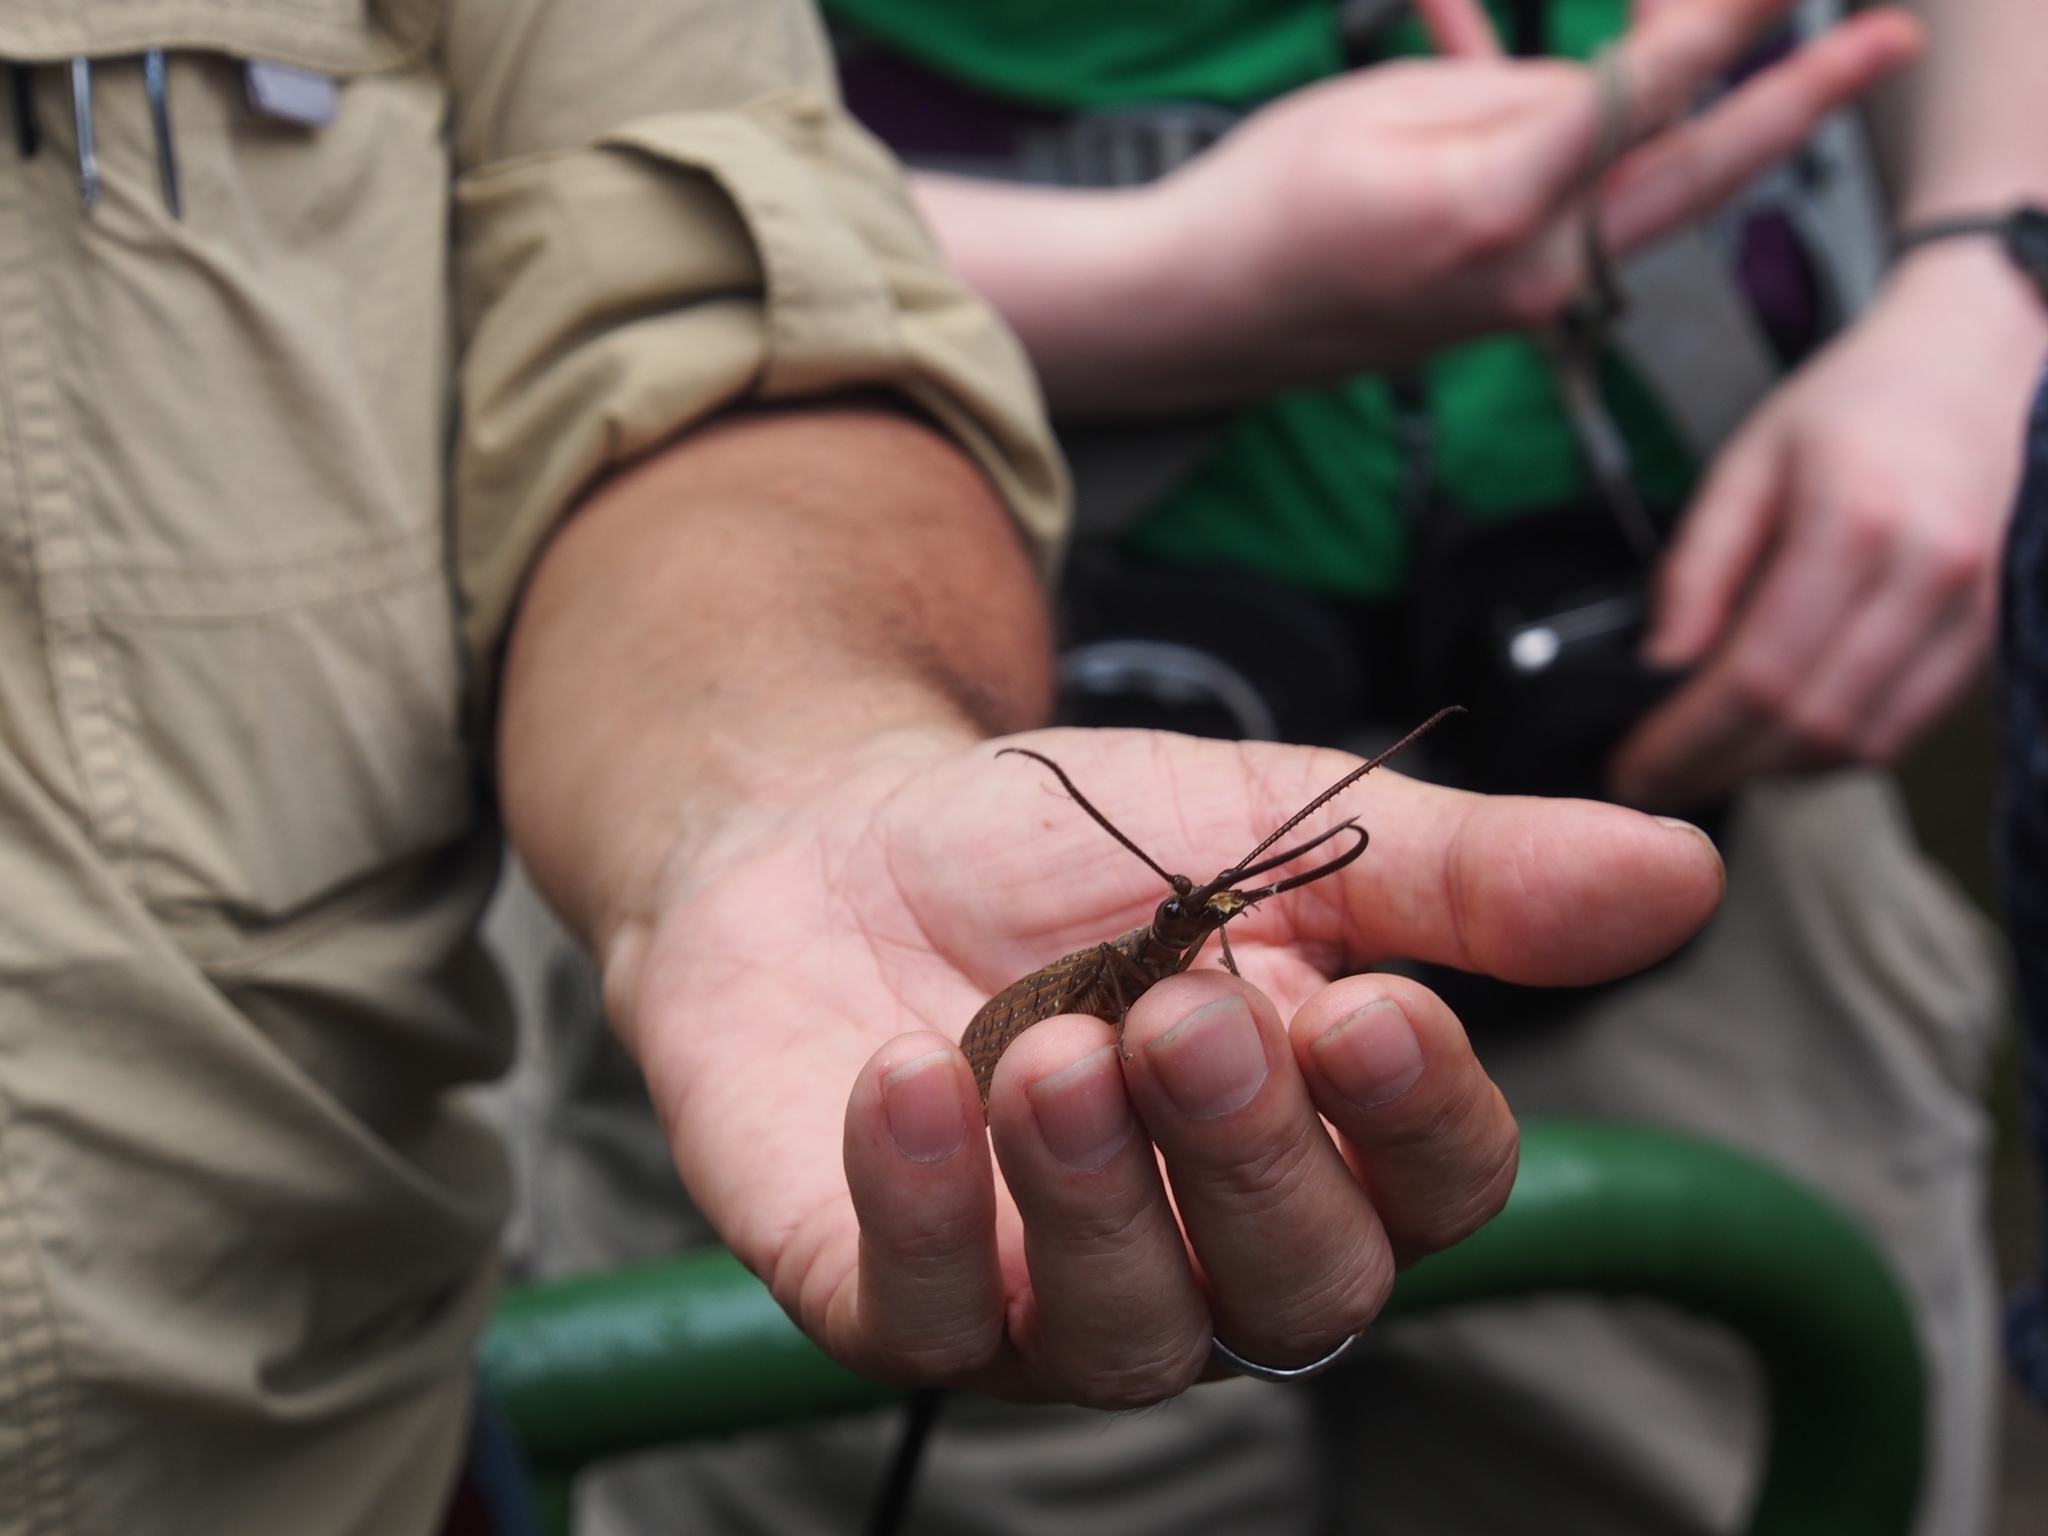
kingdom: Animalia
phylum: Arthropoda
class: Insecta
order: Megaloptera
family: Corydalidae
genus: Corydalus
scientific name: Corydalus luteus
